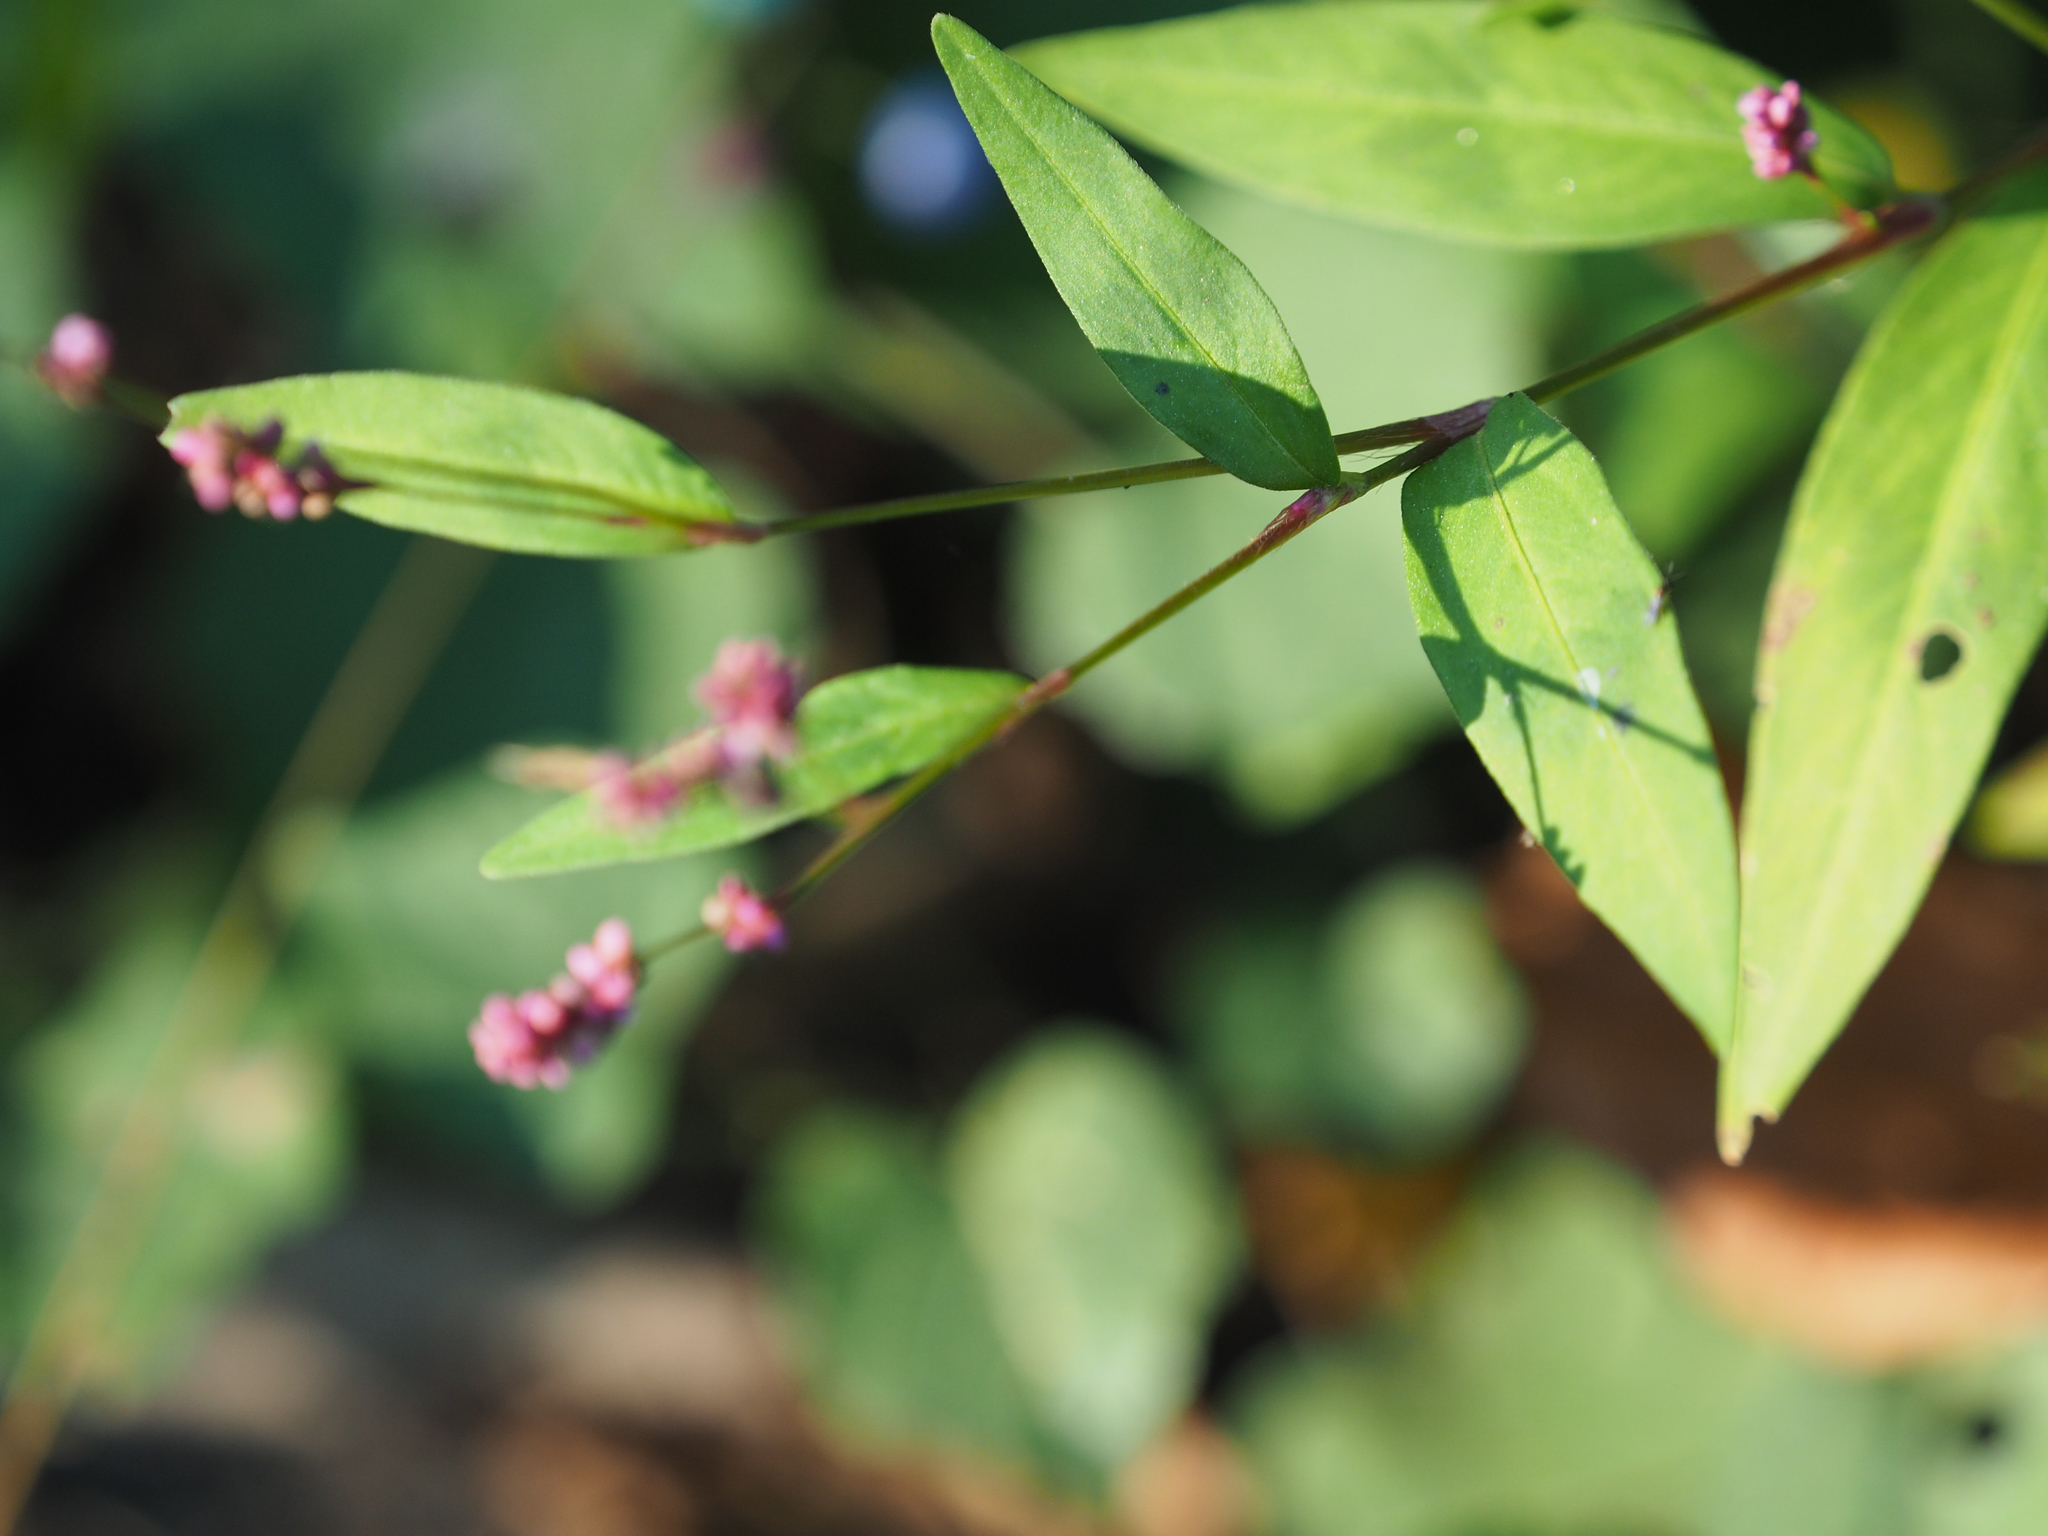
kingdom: Plantae
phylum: Tracheophyta
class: Magnoliopsida
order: Caryophyllales
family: Polygonaceae
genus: Persicaria
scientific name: Persicaria longiseta
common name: Bristly lady's-thumb
